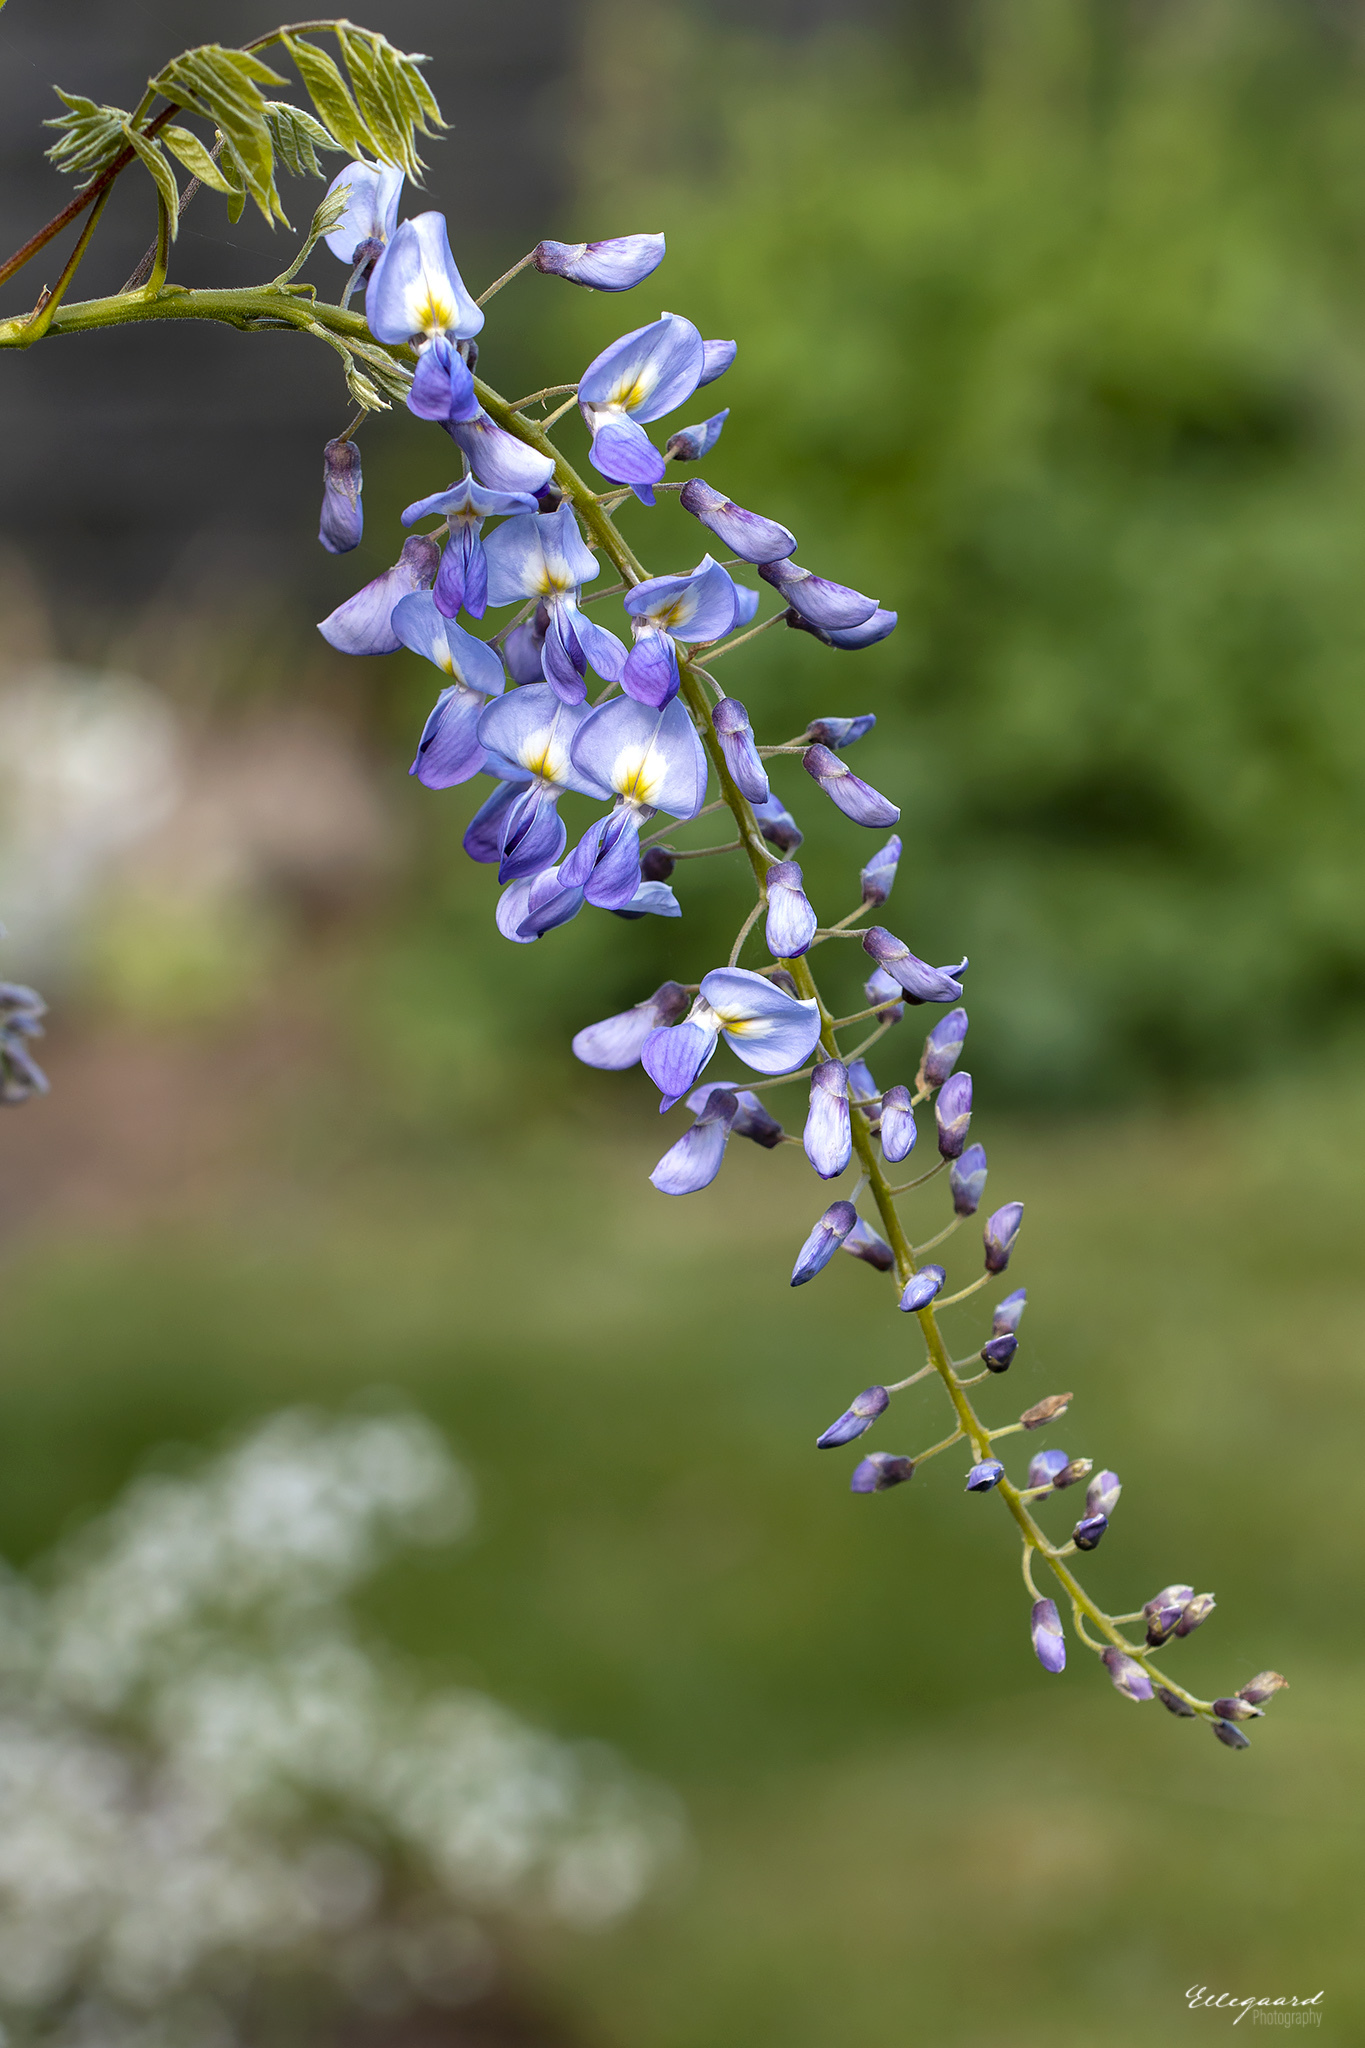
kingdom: Plantae
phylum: Tracheophyta
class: Magnoliopsida
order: Fabales
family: Fabaceae
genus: Wisteria
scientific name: Wisteria sinensis
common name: Chinese wisteria
